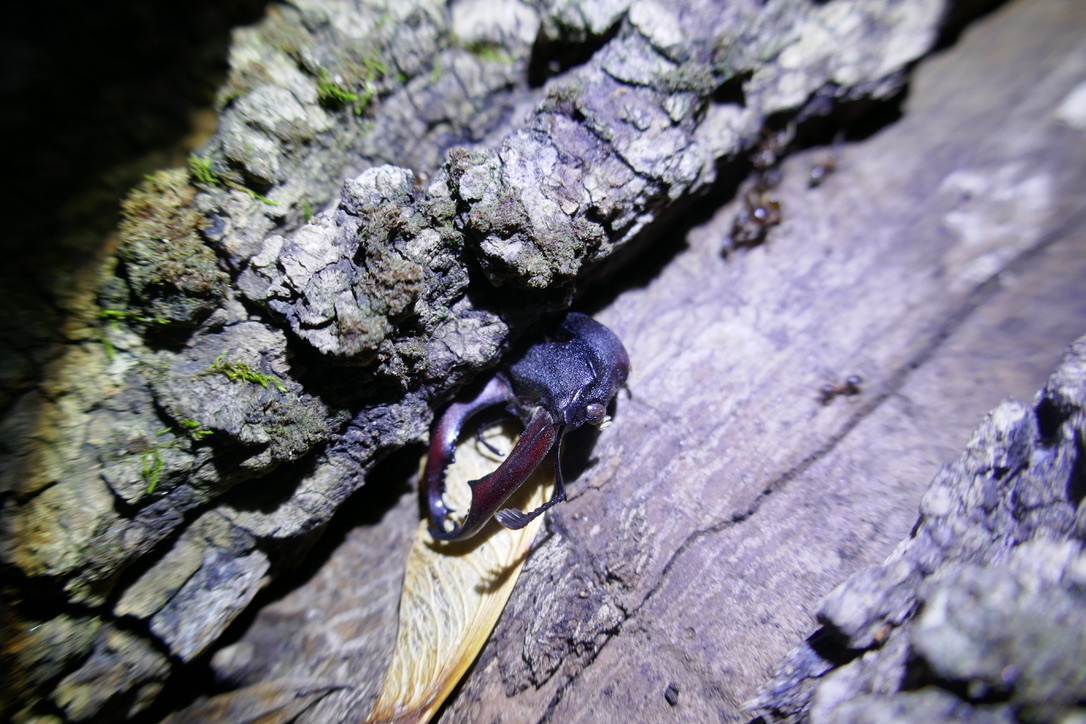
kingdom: Animalia
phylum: Arthropoda
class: Insecta
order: Coleoptera
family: Lucanidae
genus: Lucanus
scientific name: Lucanus cervus
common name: Stag beetle
